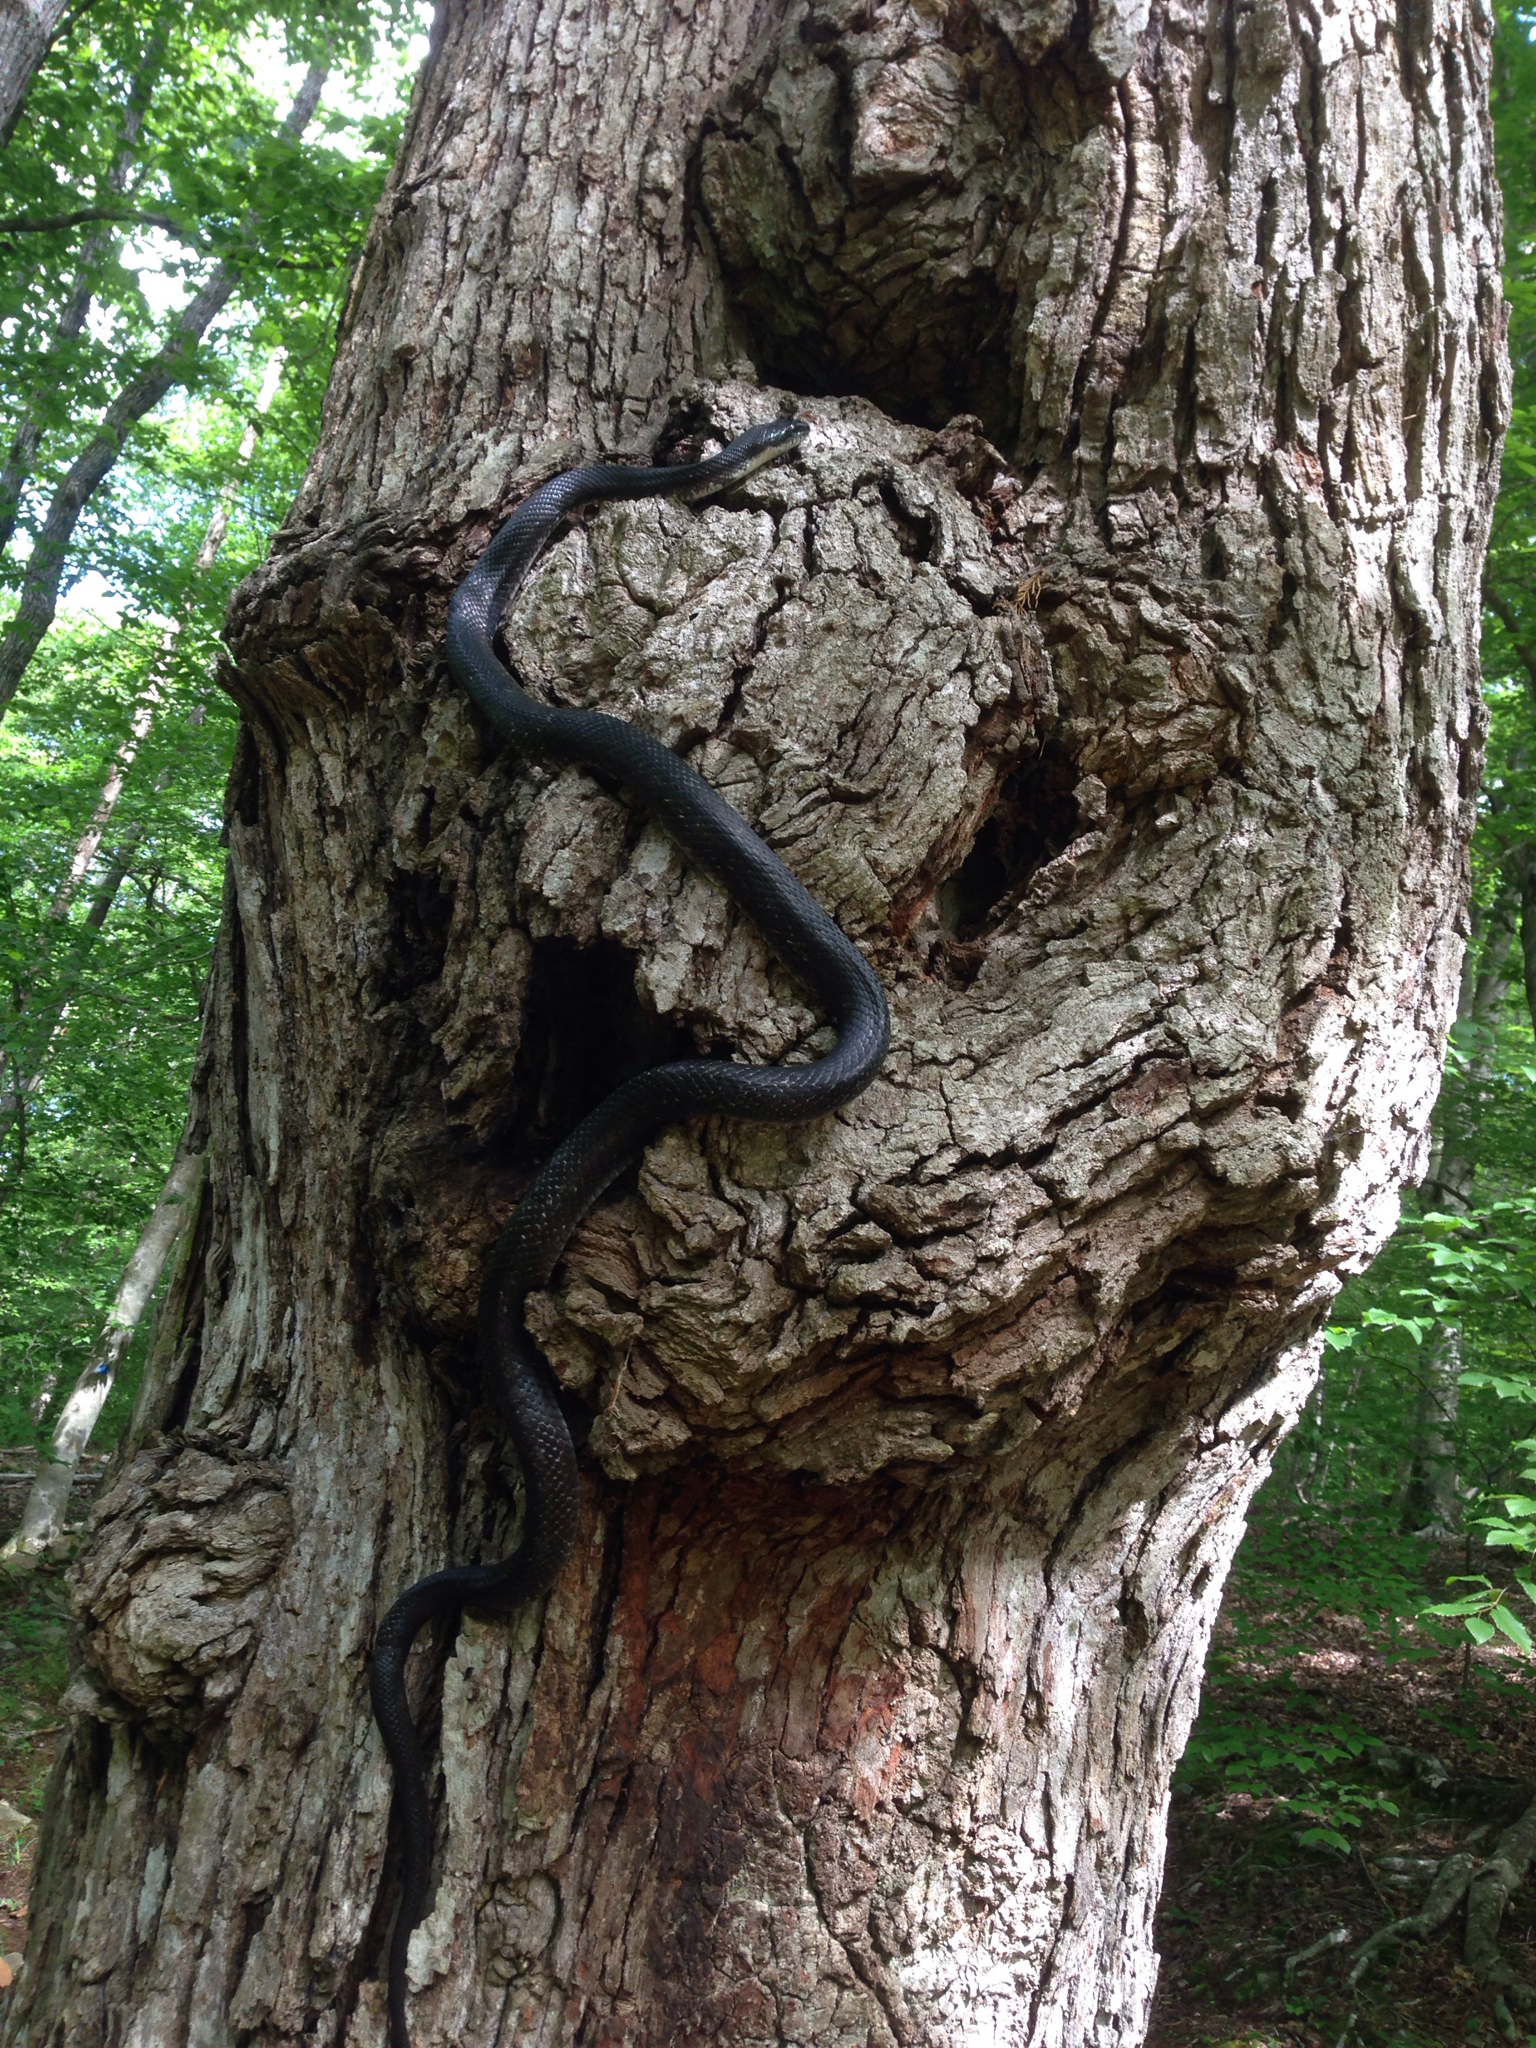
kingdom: Animalia
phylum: Chordata
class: Squamata
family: Colubridae
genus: Pantherophis
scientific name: Pantherophis alleghaniensis
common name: Eastern rat snake
